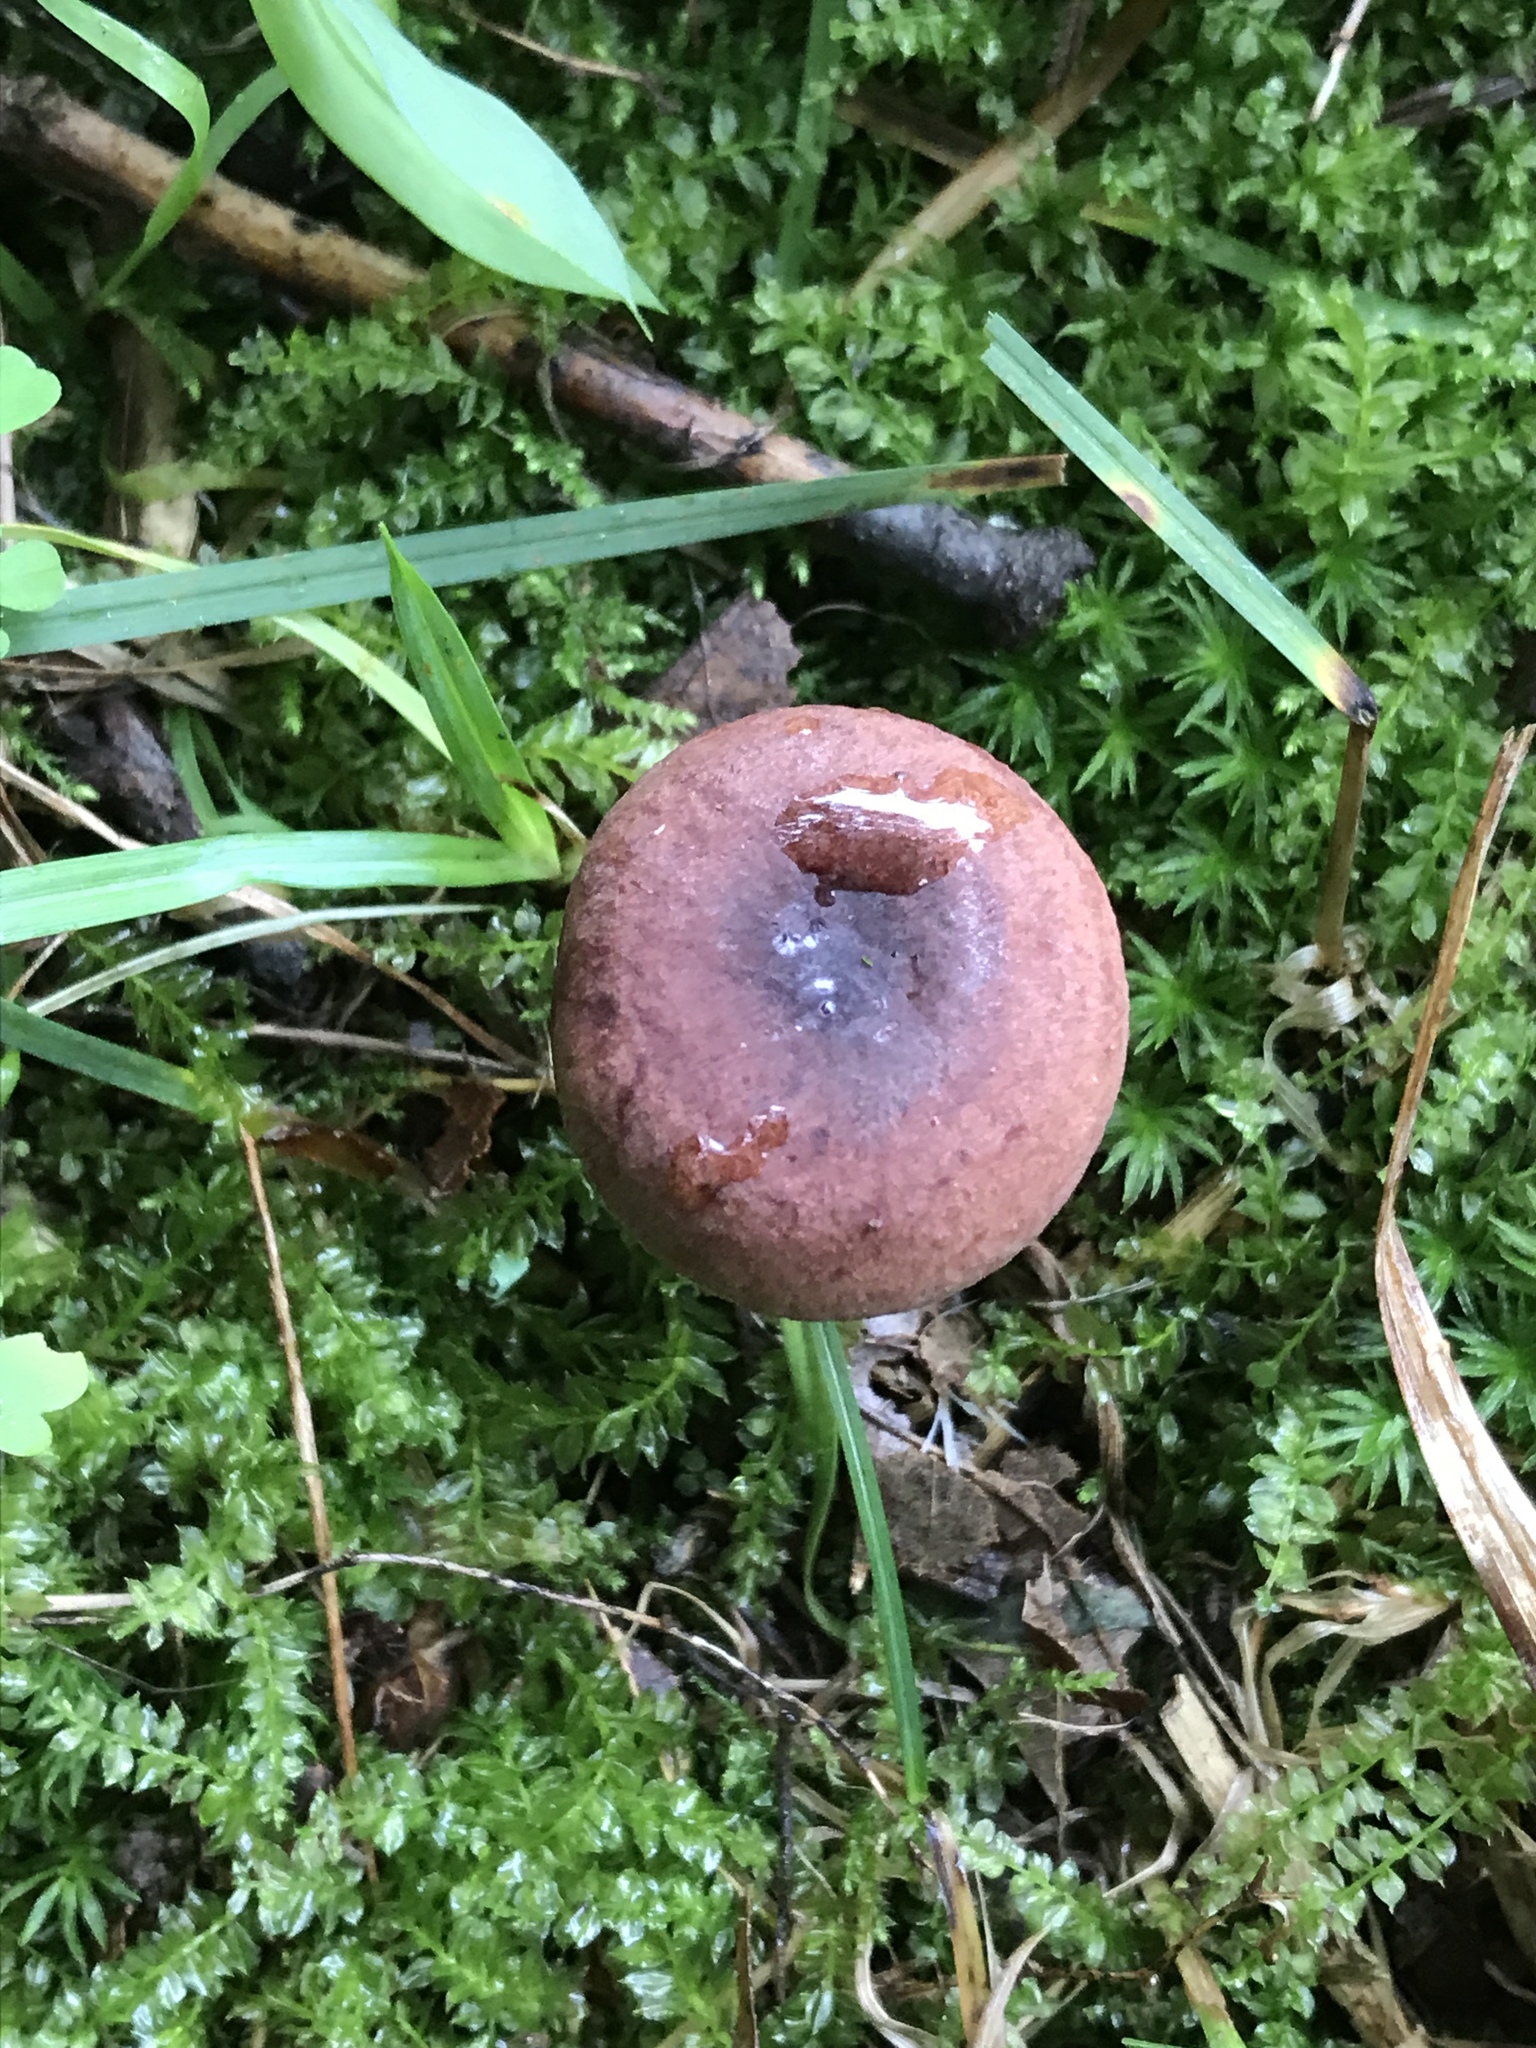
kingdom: Fungi
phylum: Basidiomycota
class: Agaricomycetes
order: Russulales
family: Russulaceae
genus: Lactarius
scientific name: Lactarius mutabilis
